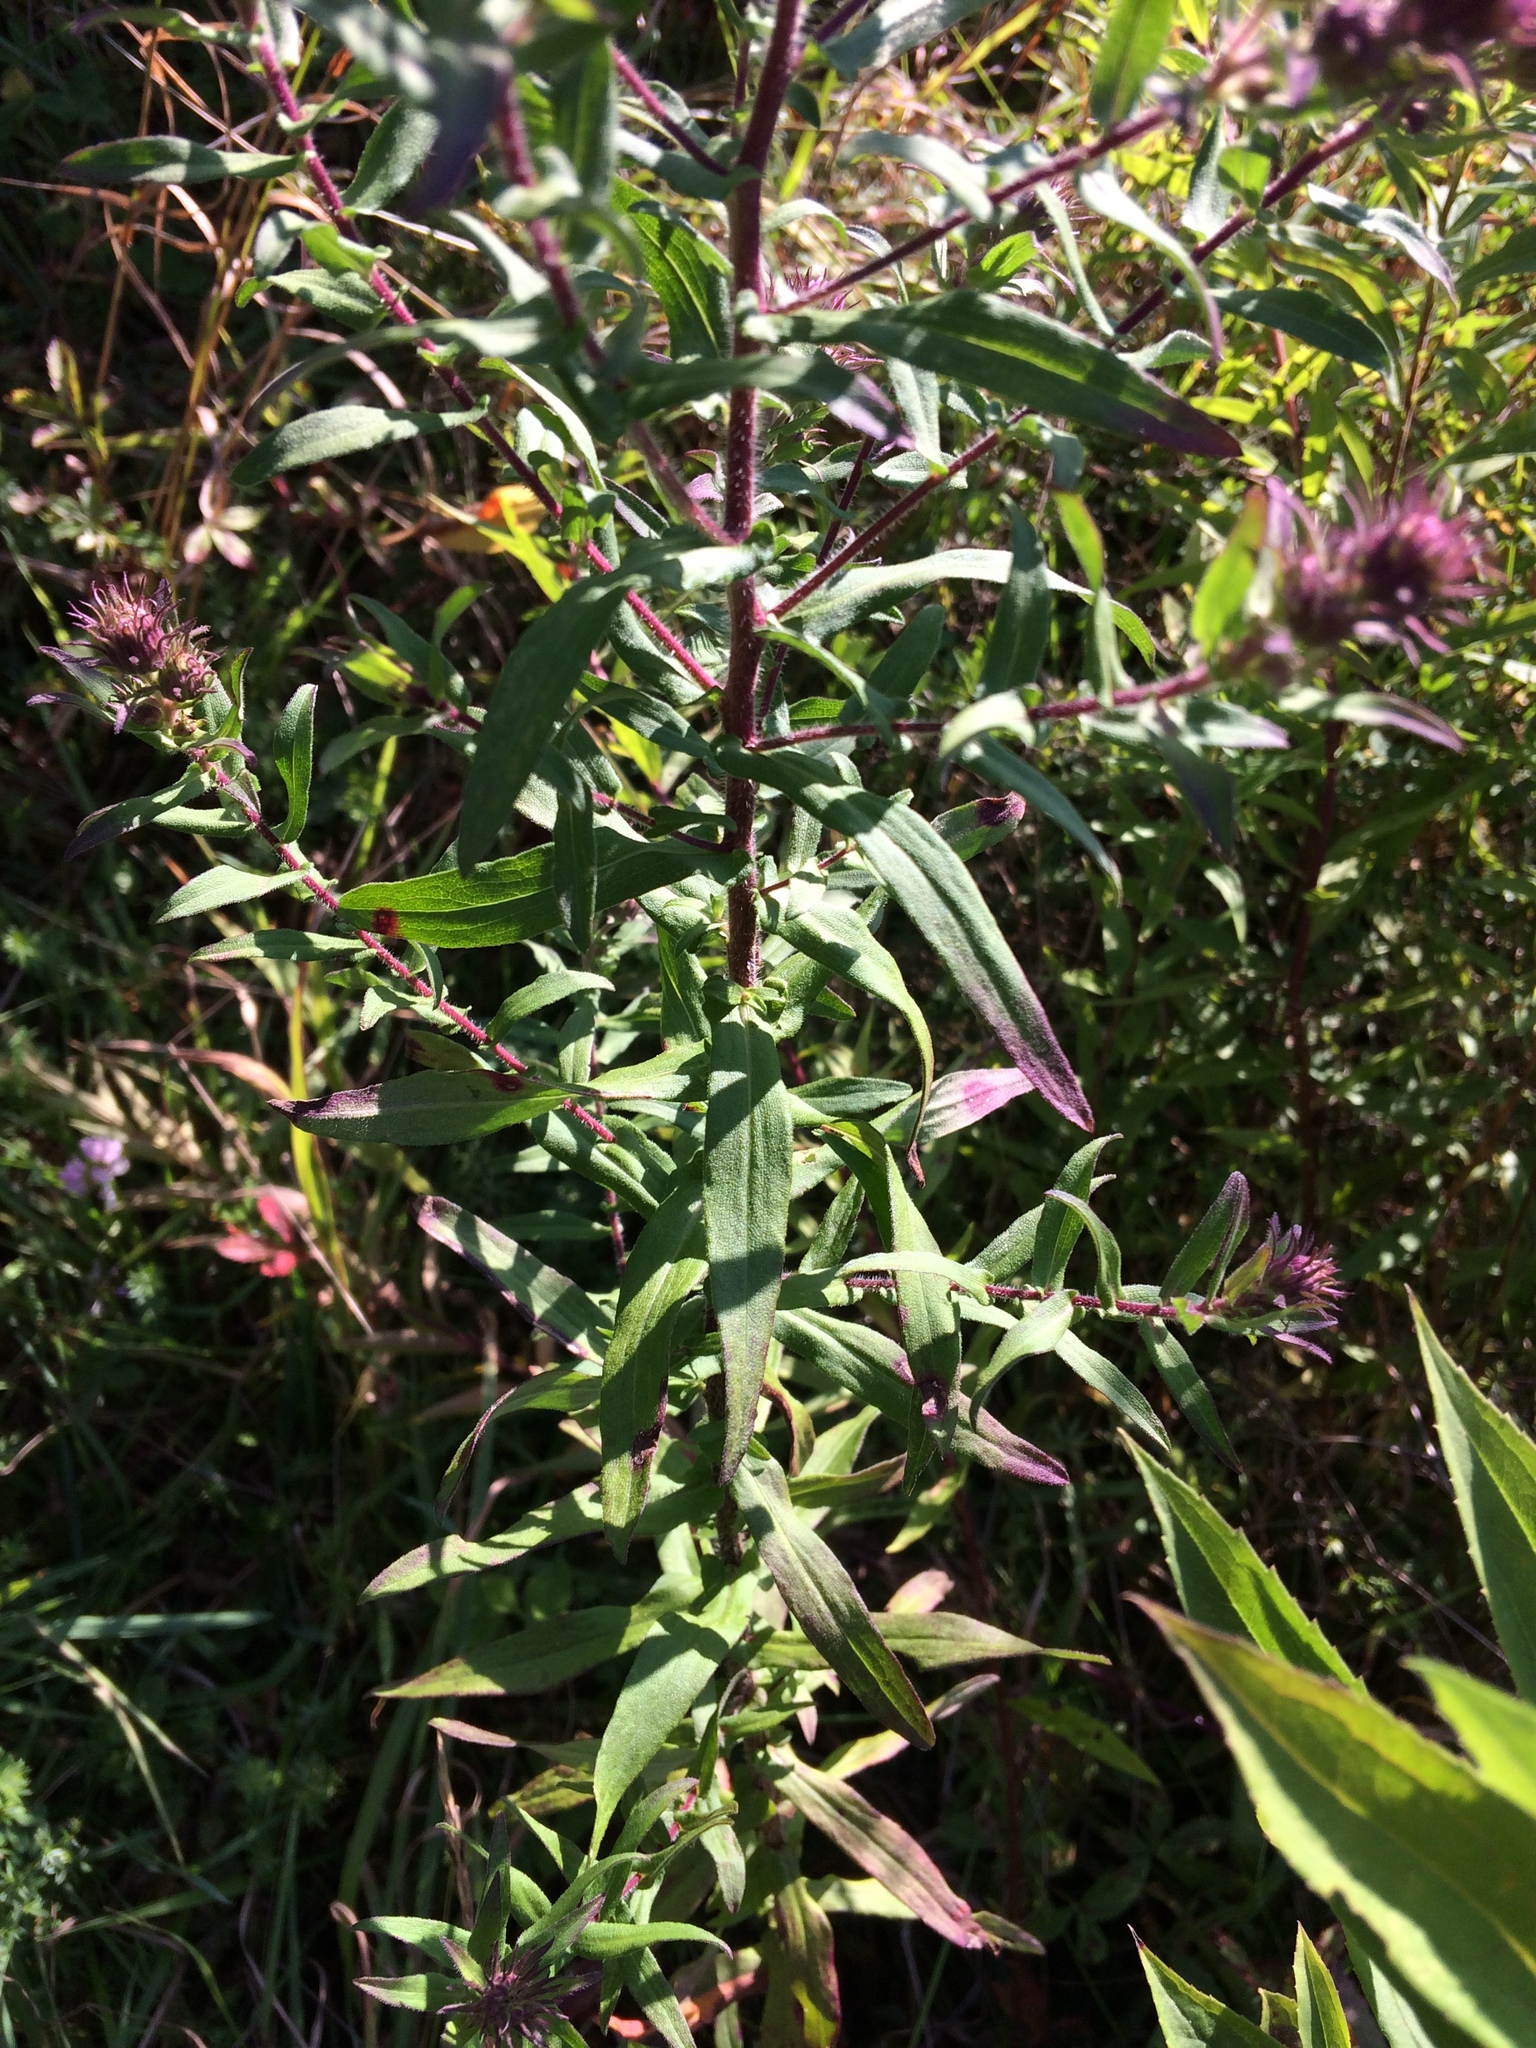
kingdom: Plantae
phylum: Tracheophyta
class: Magnoliopsida
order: Asterales
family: Asteraceae
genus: Symphyotrichum
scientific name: Symphyotrichum novae-angliae
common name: Michaelmas daisy
